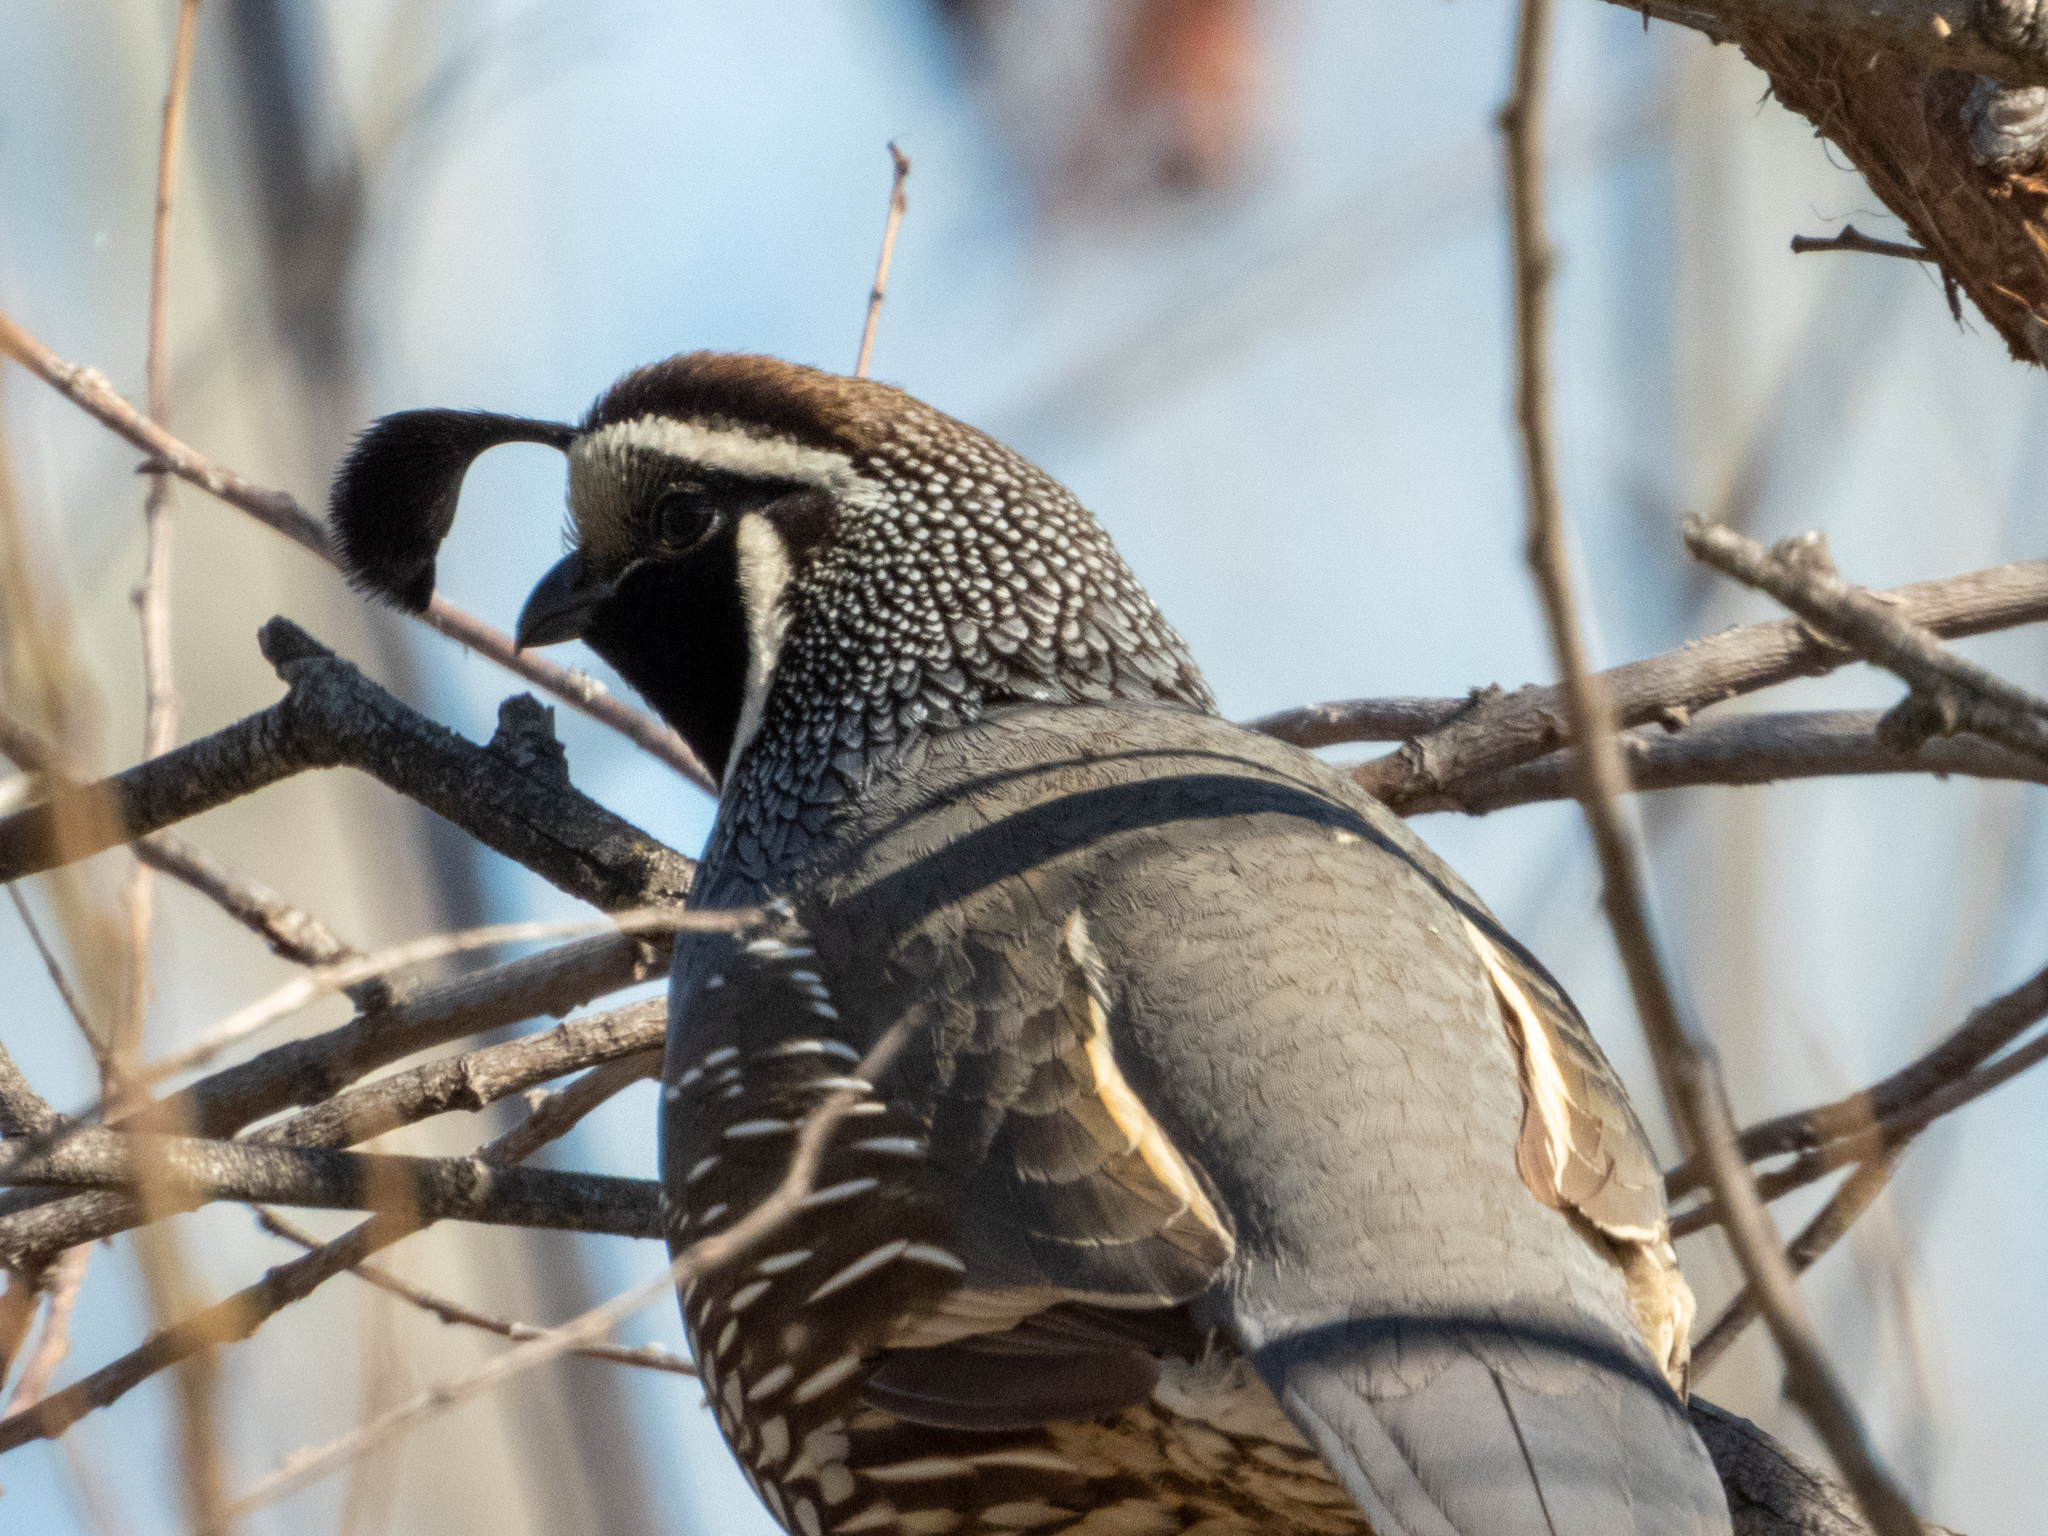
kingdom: Animalia
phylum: Chordata
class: Aves
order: Galliformes
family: Odontophoridae
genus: Callipepla
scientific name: Callipepla californica
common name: California quail
